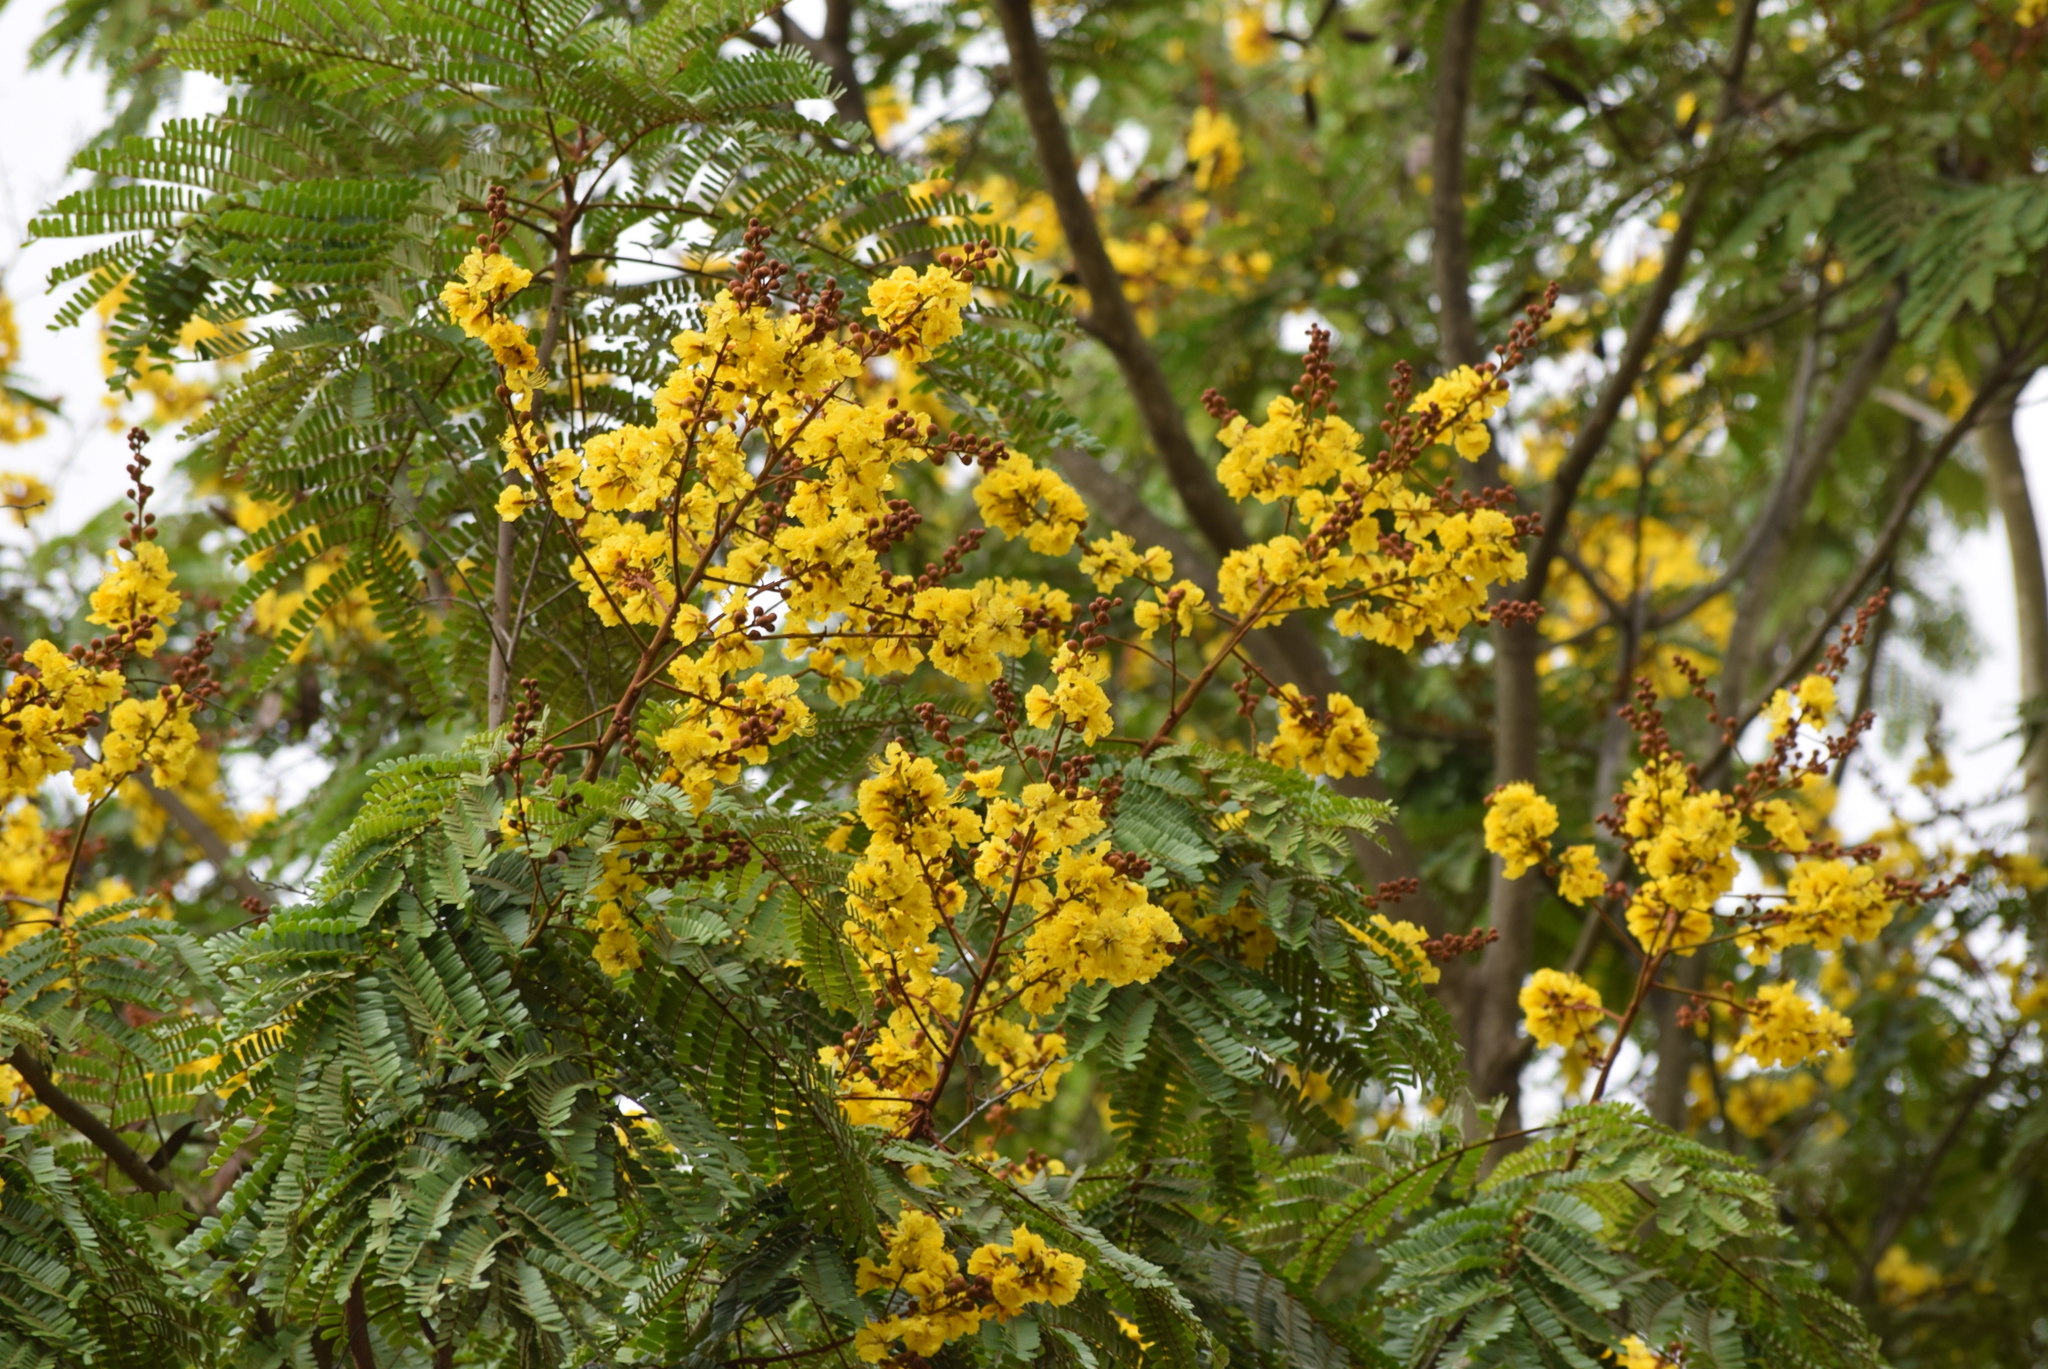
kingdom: Plantae
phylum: Tracheophyta
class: Magnoliopsida
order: Fabales
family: Fabaceae
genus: Peltophorum
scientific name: Peltophorum pterocarpum
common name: Yellow flame
